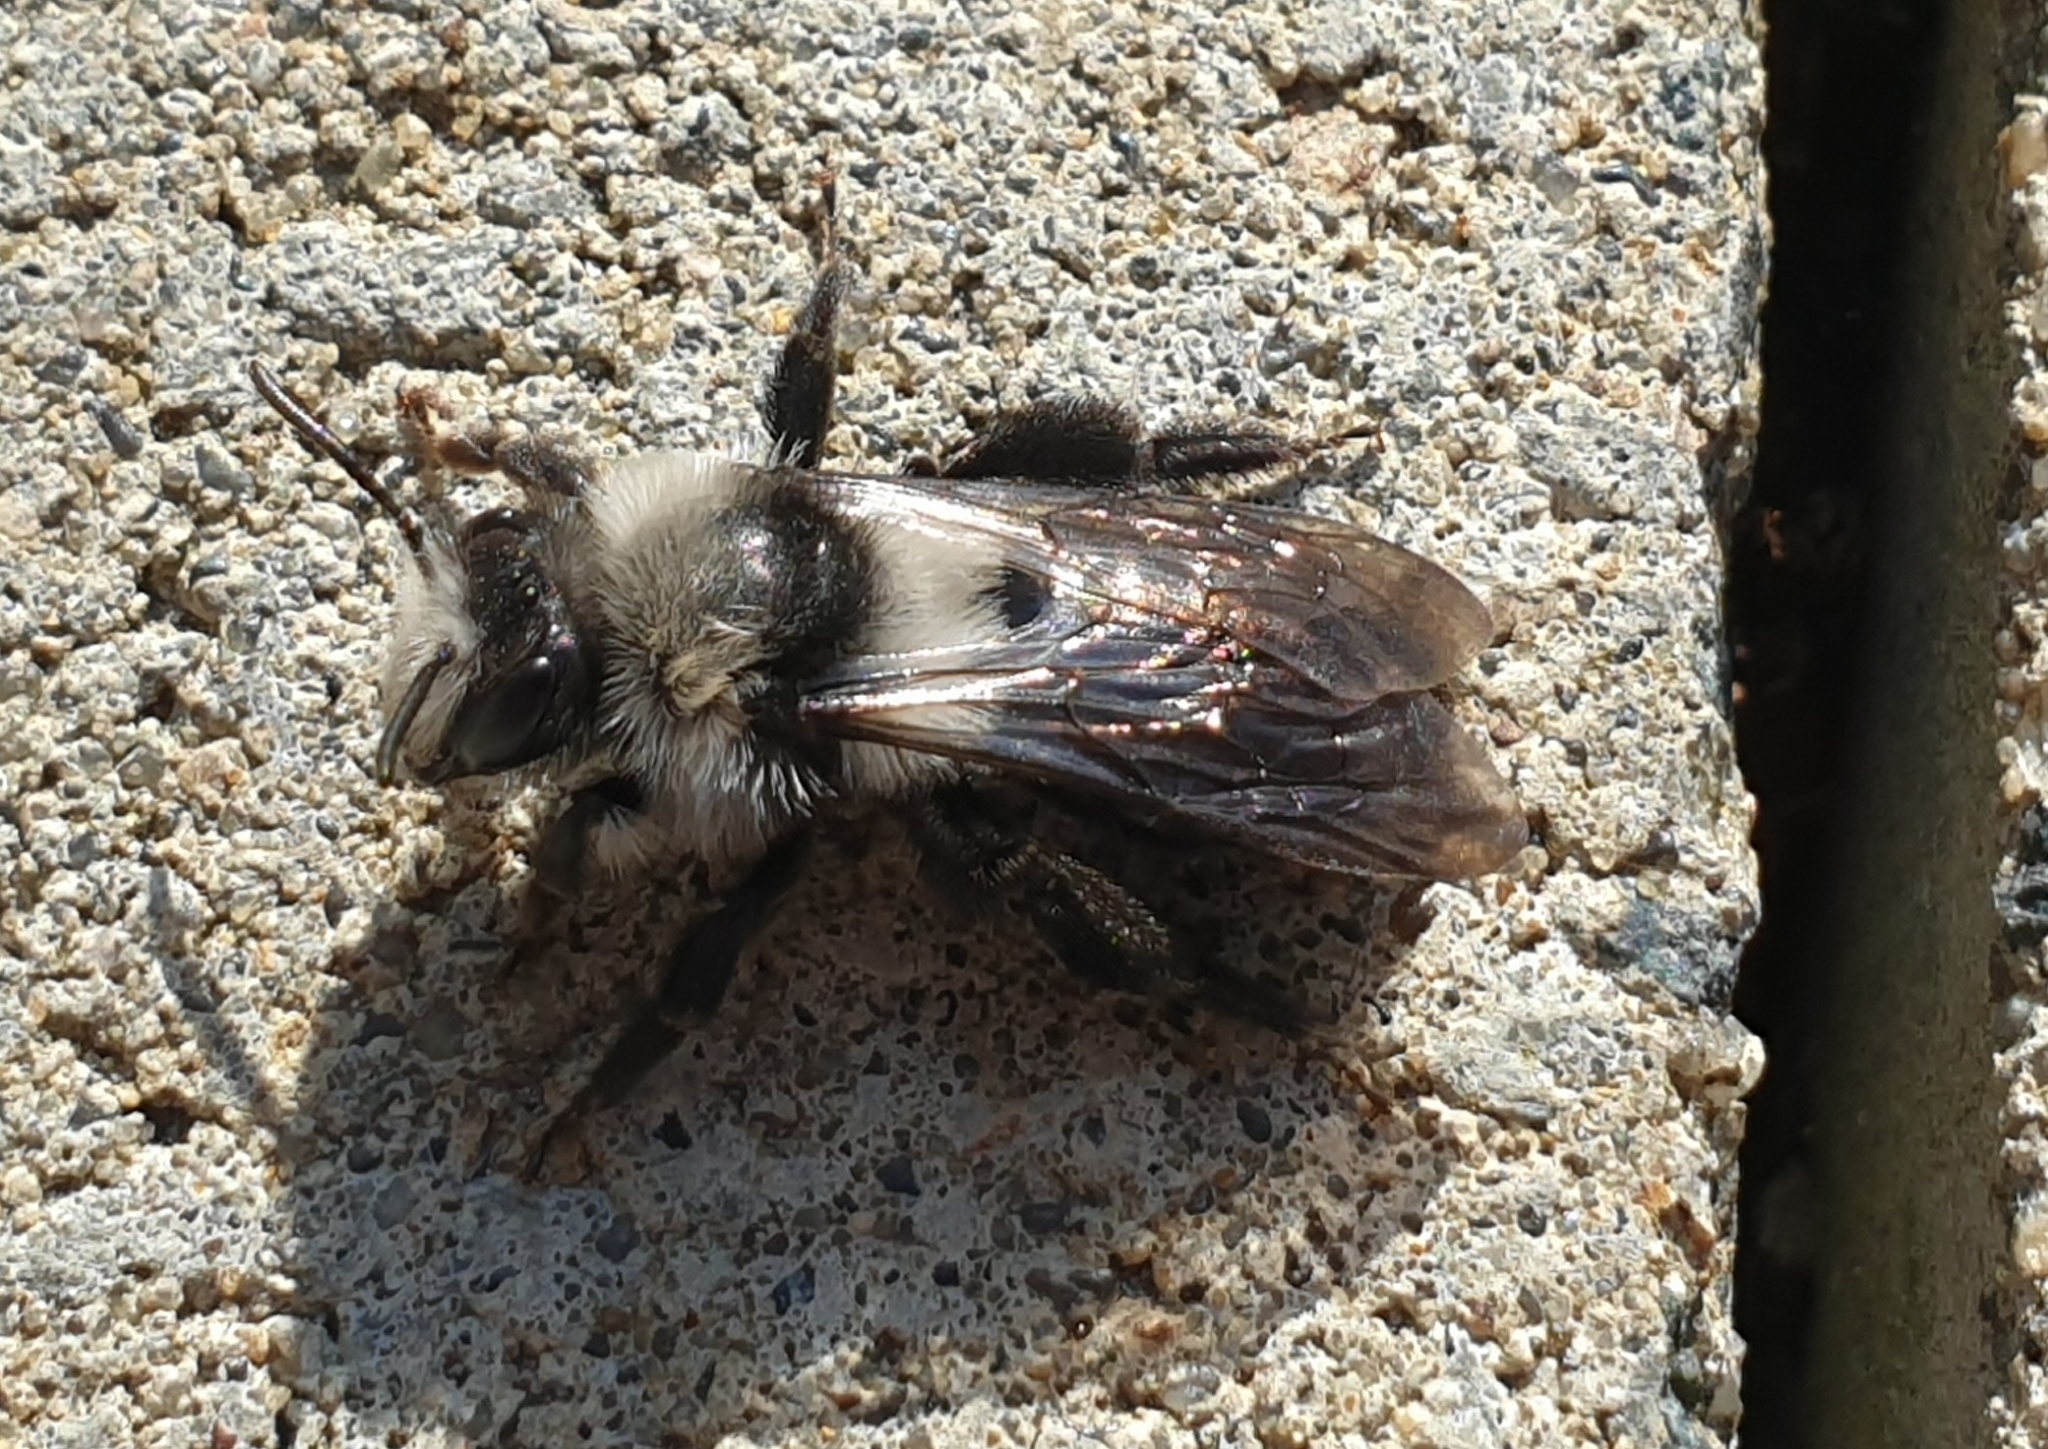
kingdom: Animalia
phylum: Arthropoda
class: Insecta
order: Hymenoptera
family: Andrenidae
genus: Andrena
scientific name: Andrena cineraria
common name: Ashy mining bee
